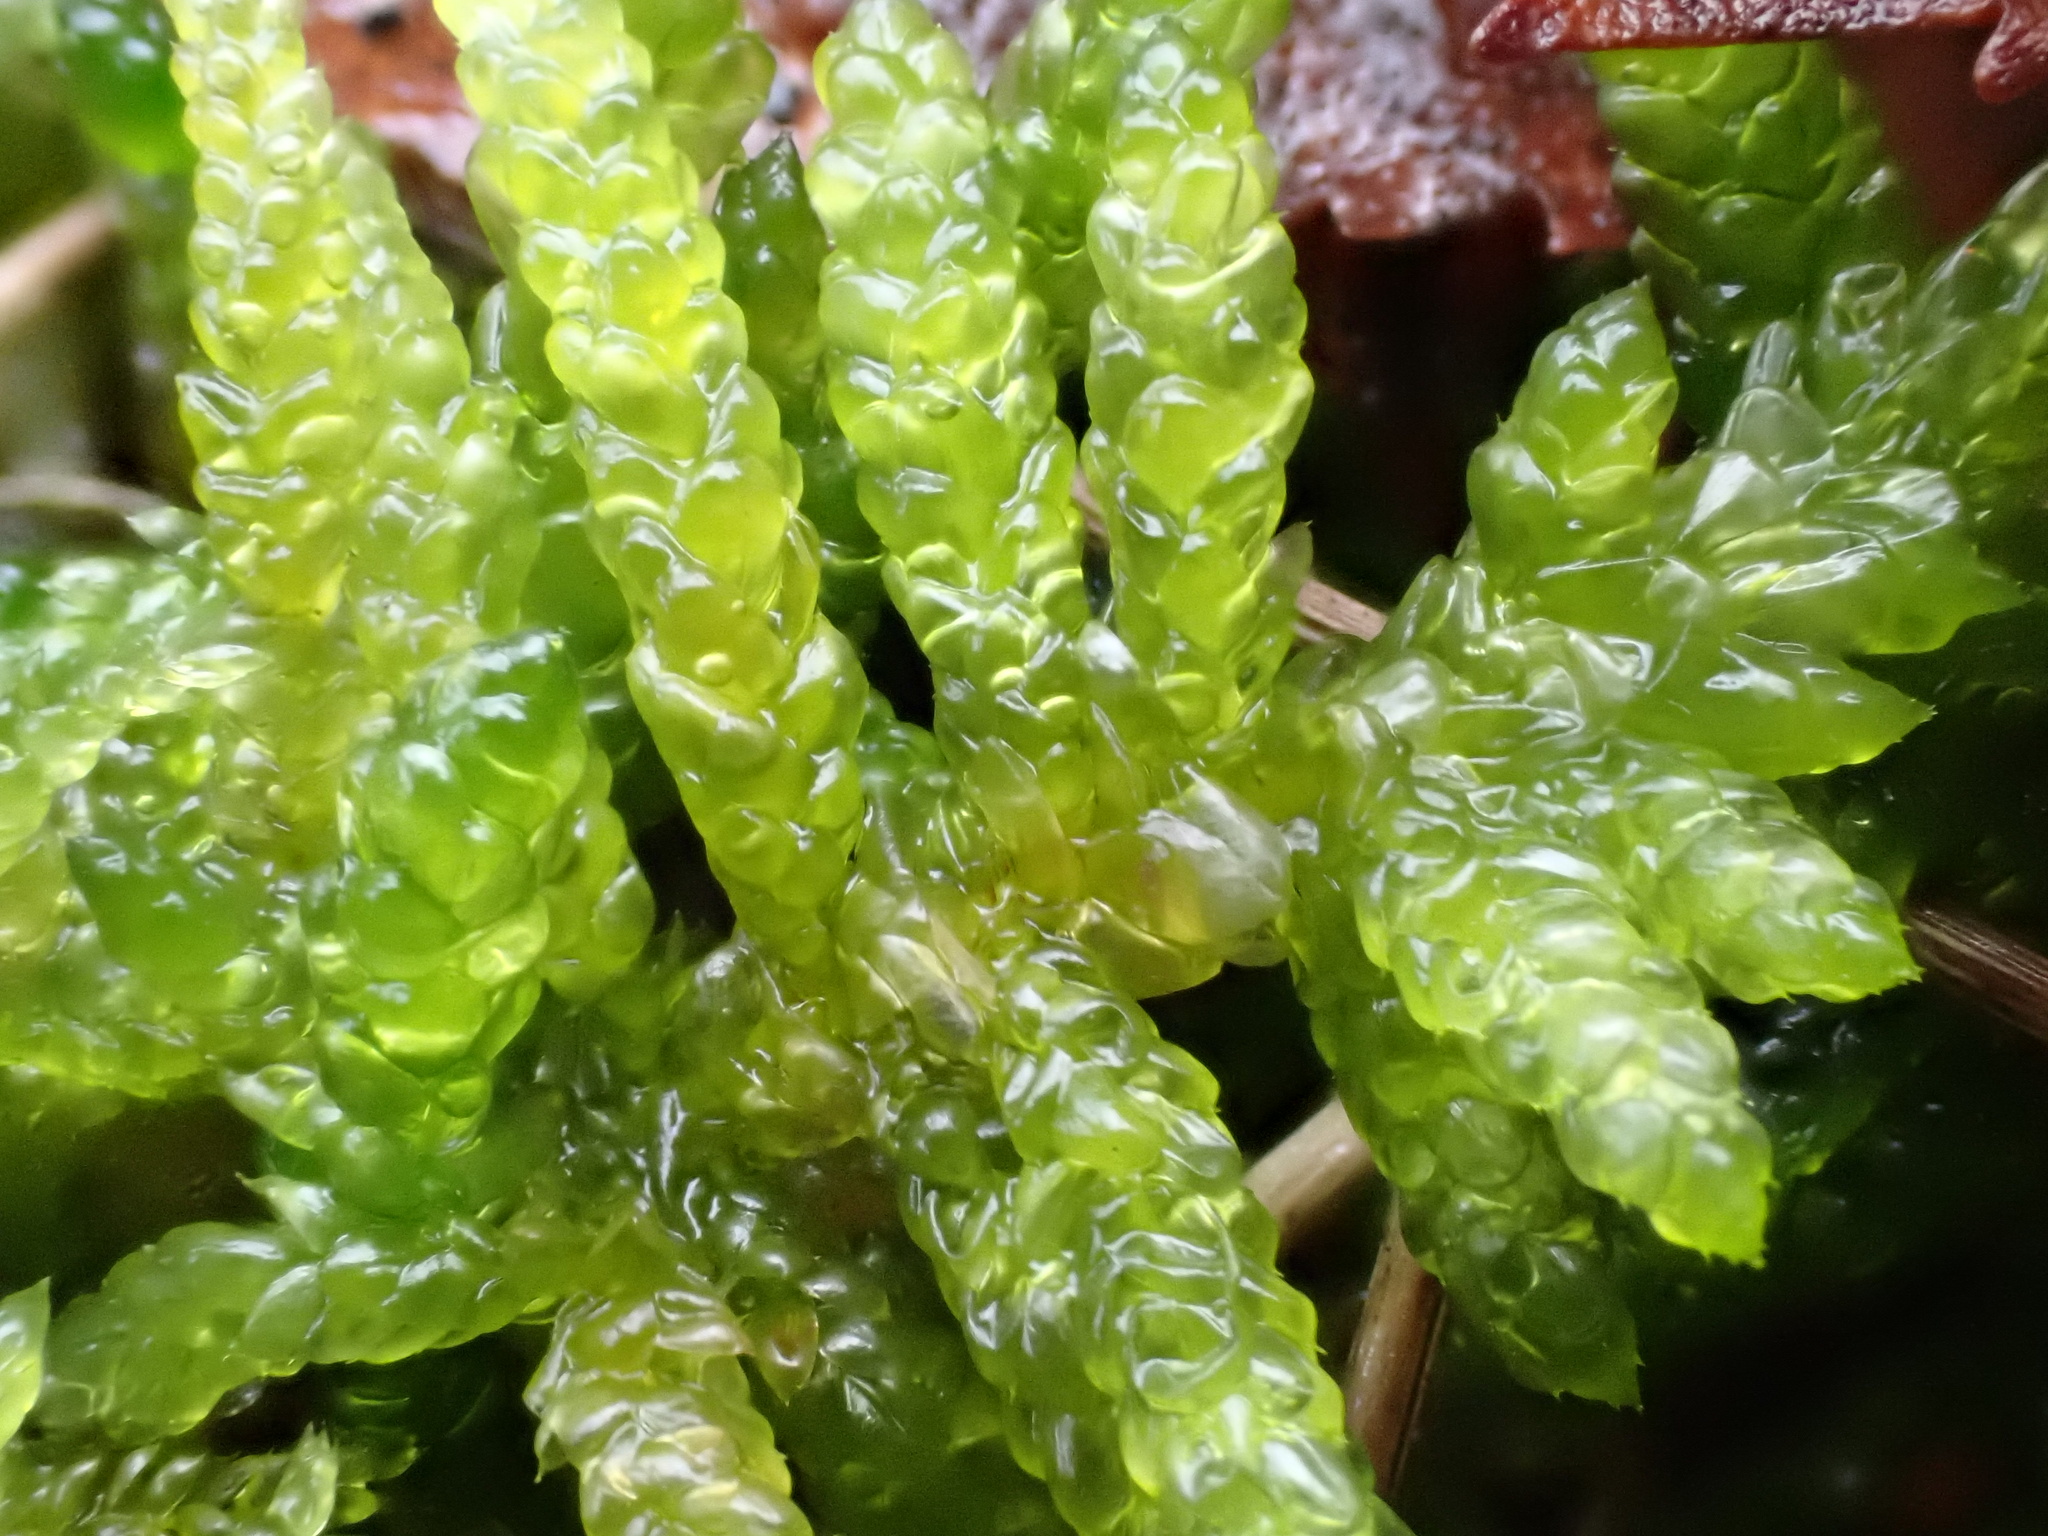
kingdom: Plantae
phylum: Bryophyta
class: Bryopsida
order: Hypnales
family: Brachytheciaceae
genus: Pseudoscleropodium
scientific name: Pseudoscleropodium purum
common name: Neat feather-moss
